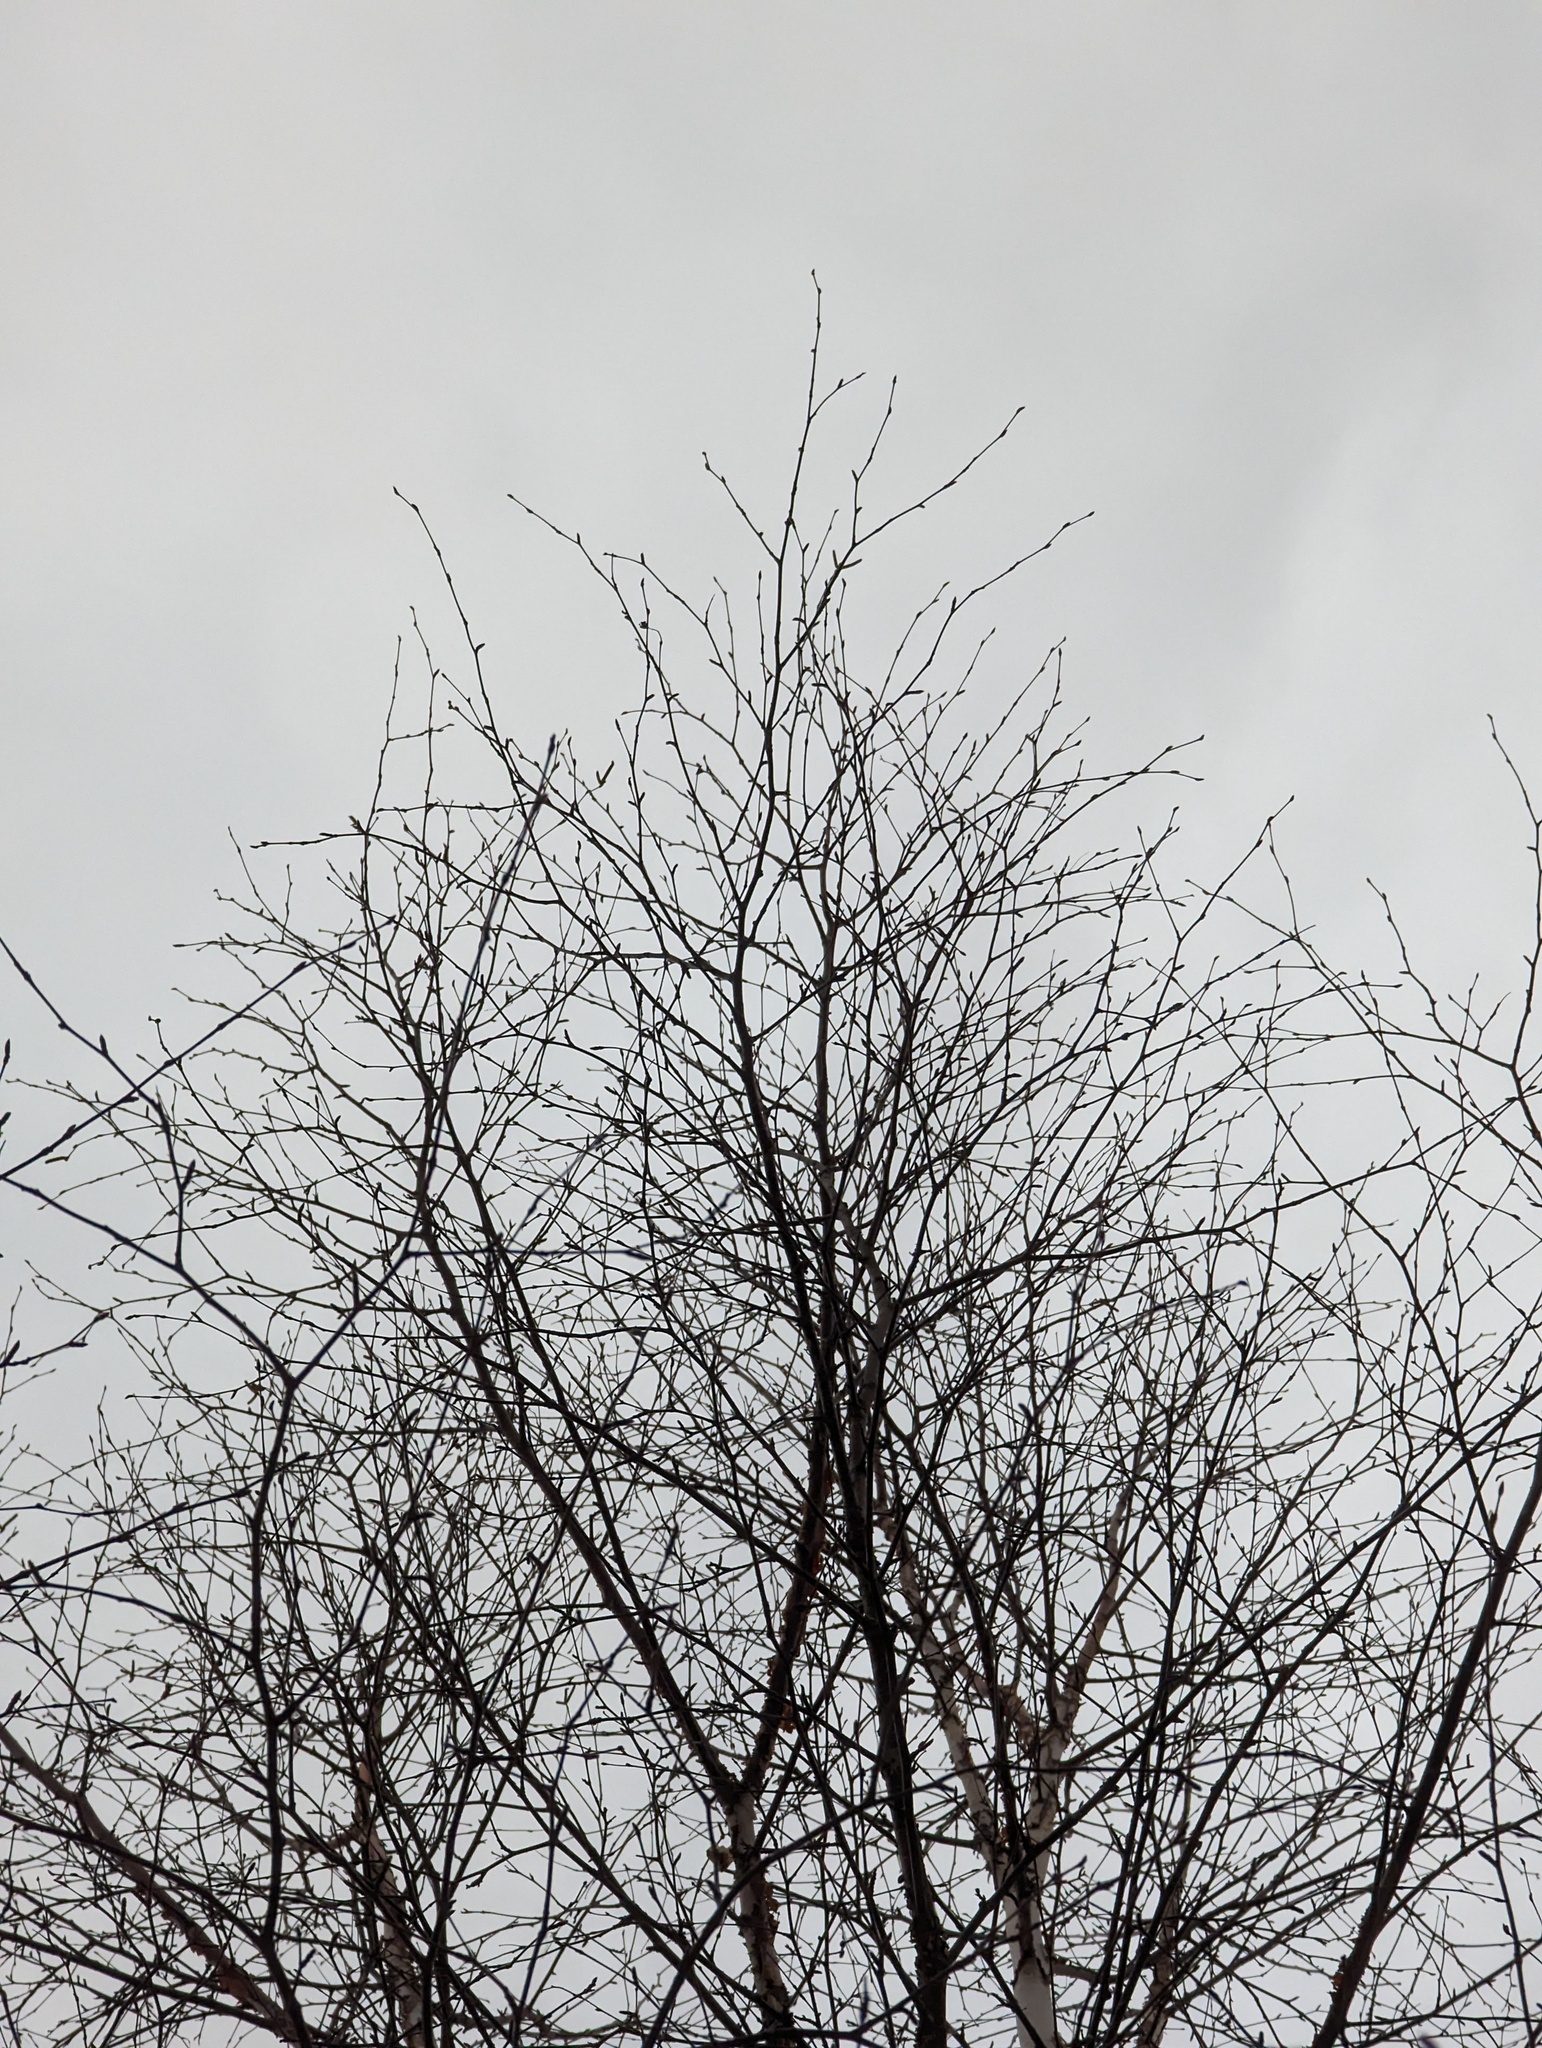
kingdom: Plantae
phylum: Tracheophyta
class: Magnoliopsida
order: Fagales
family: Betulaceae
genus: Betula
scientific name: Betula papyrifera
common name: Paper birch
